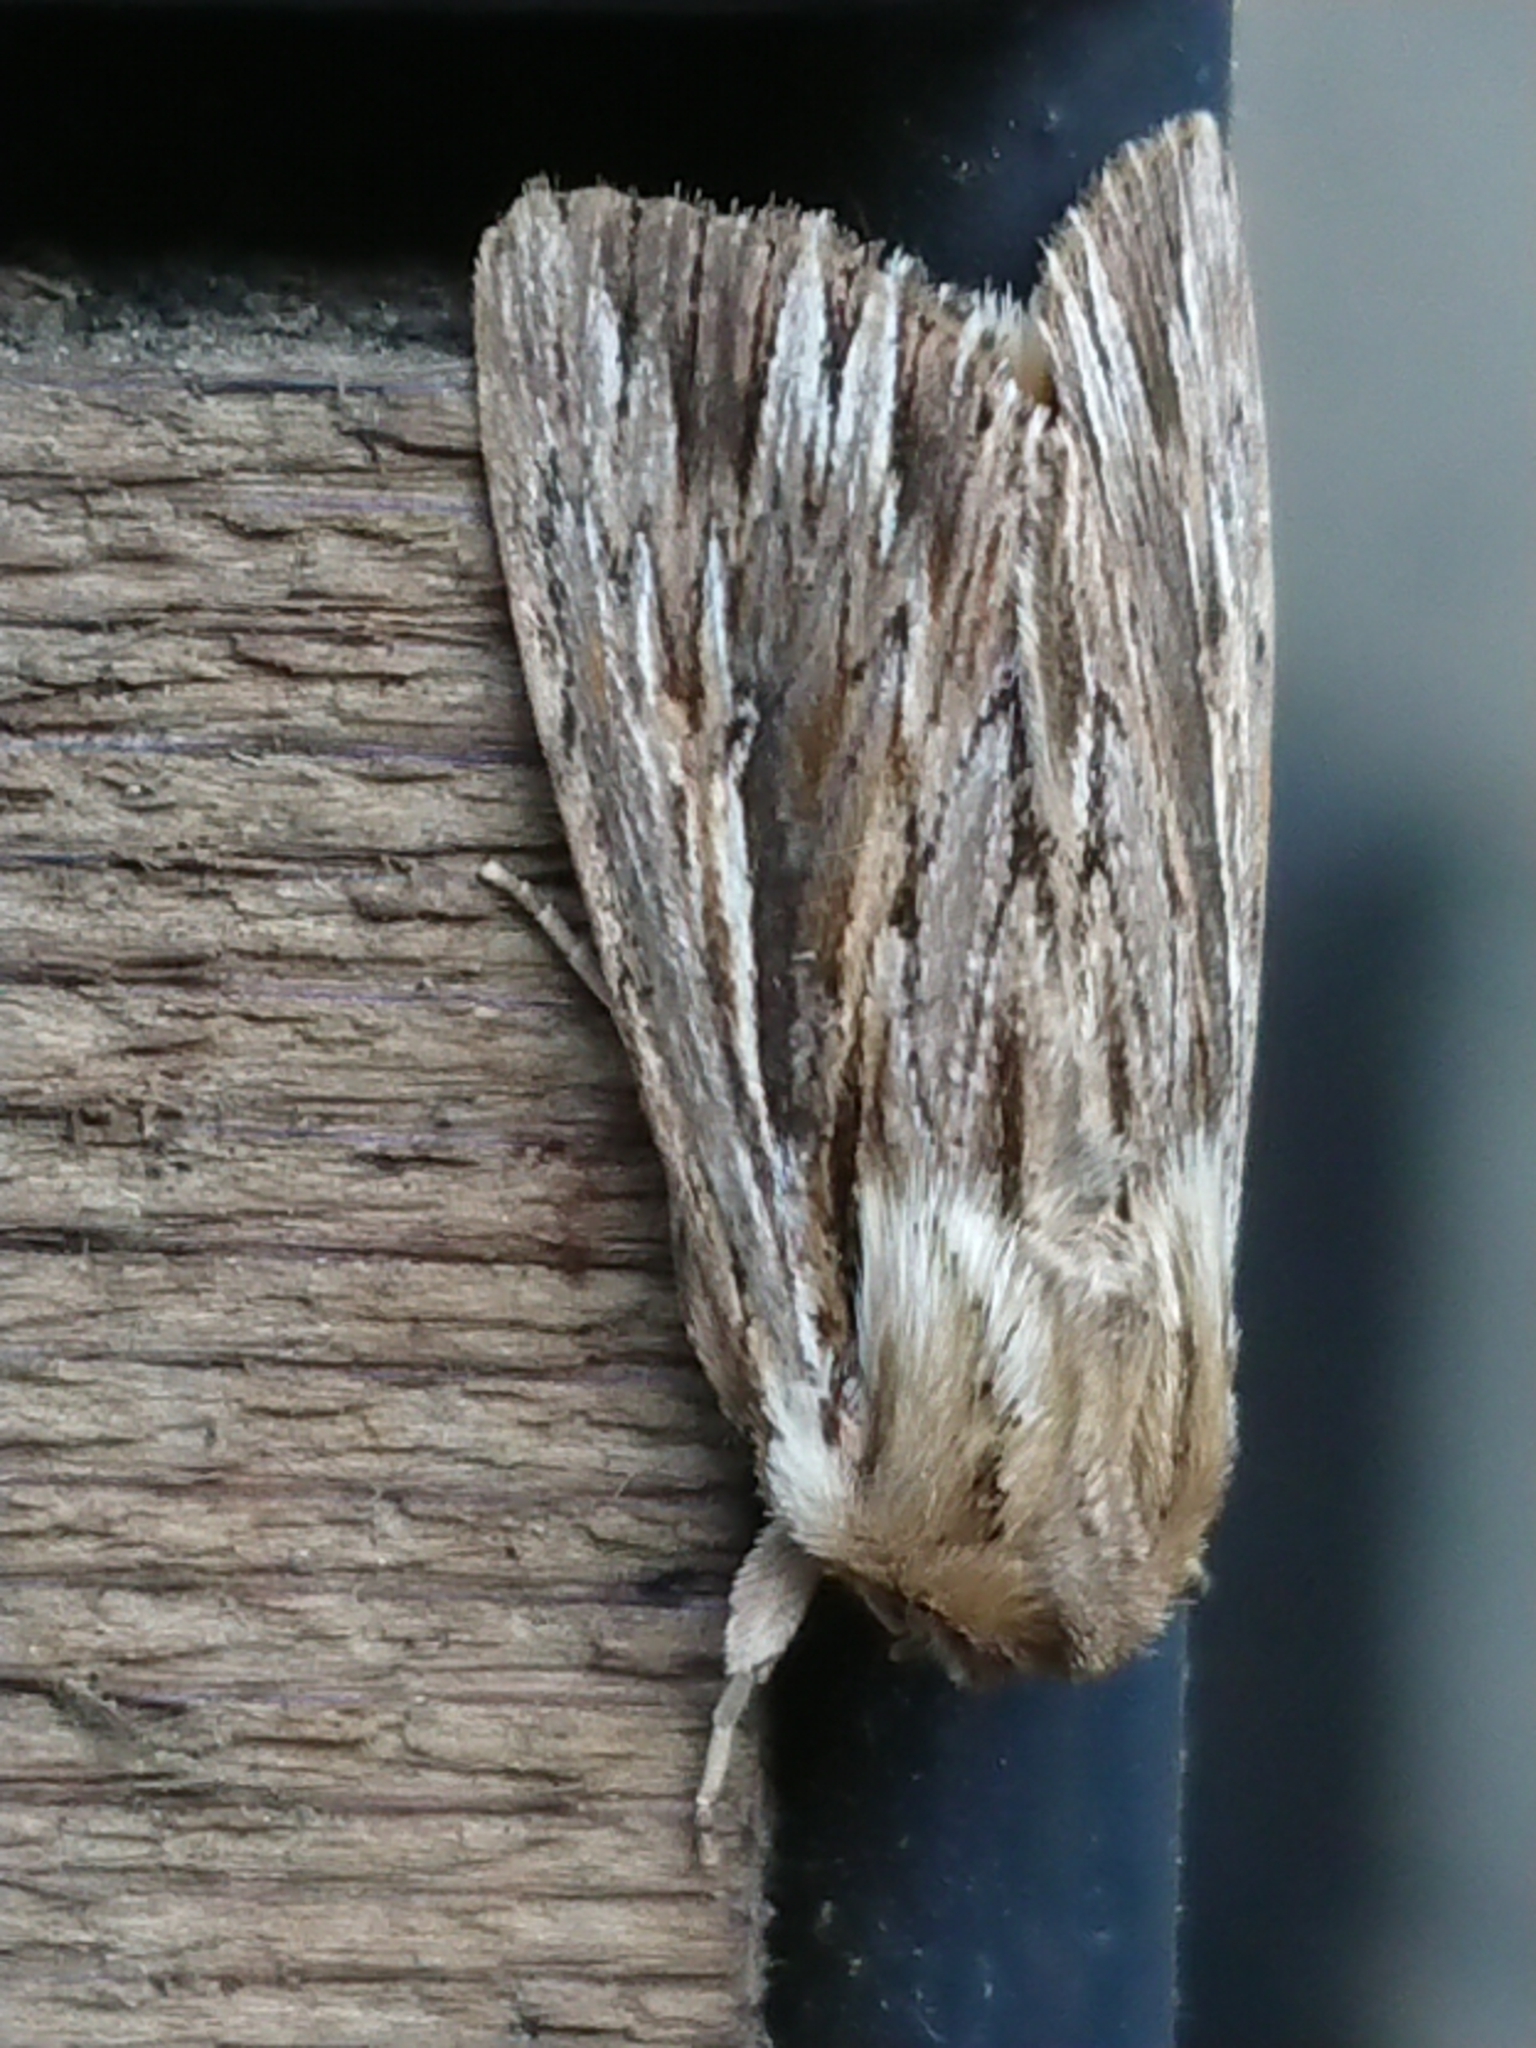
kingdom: Animalia
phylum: Arthropoda
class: Insecta
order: Lepidoptera
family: Noctuidae
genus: Persectania
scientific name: Persectania aversa
